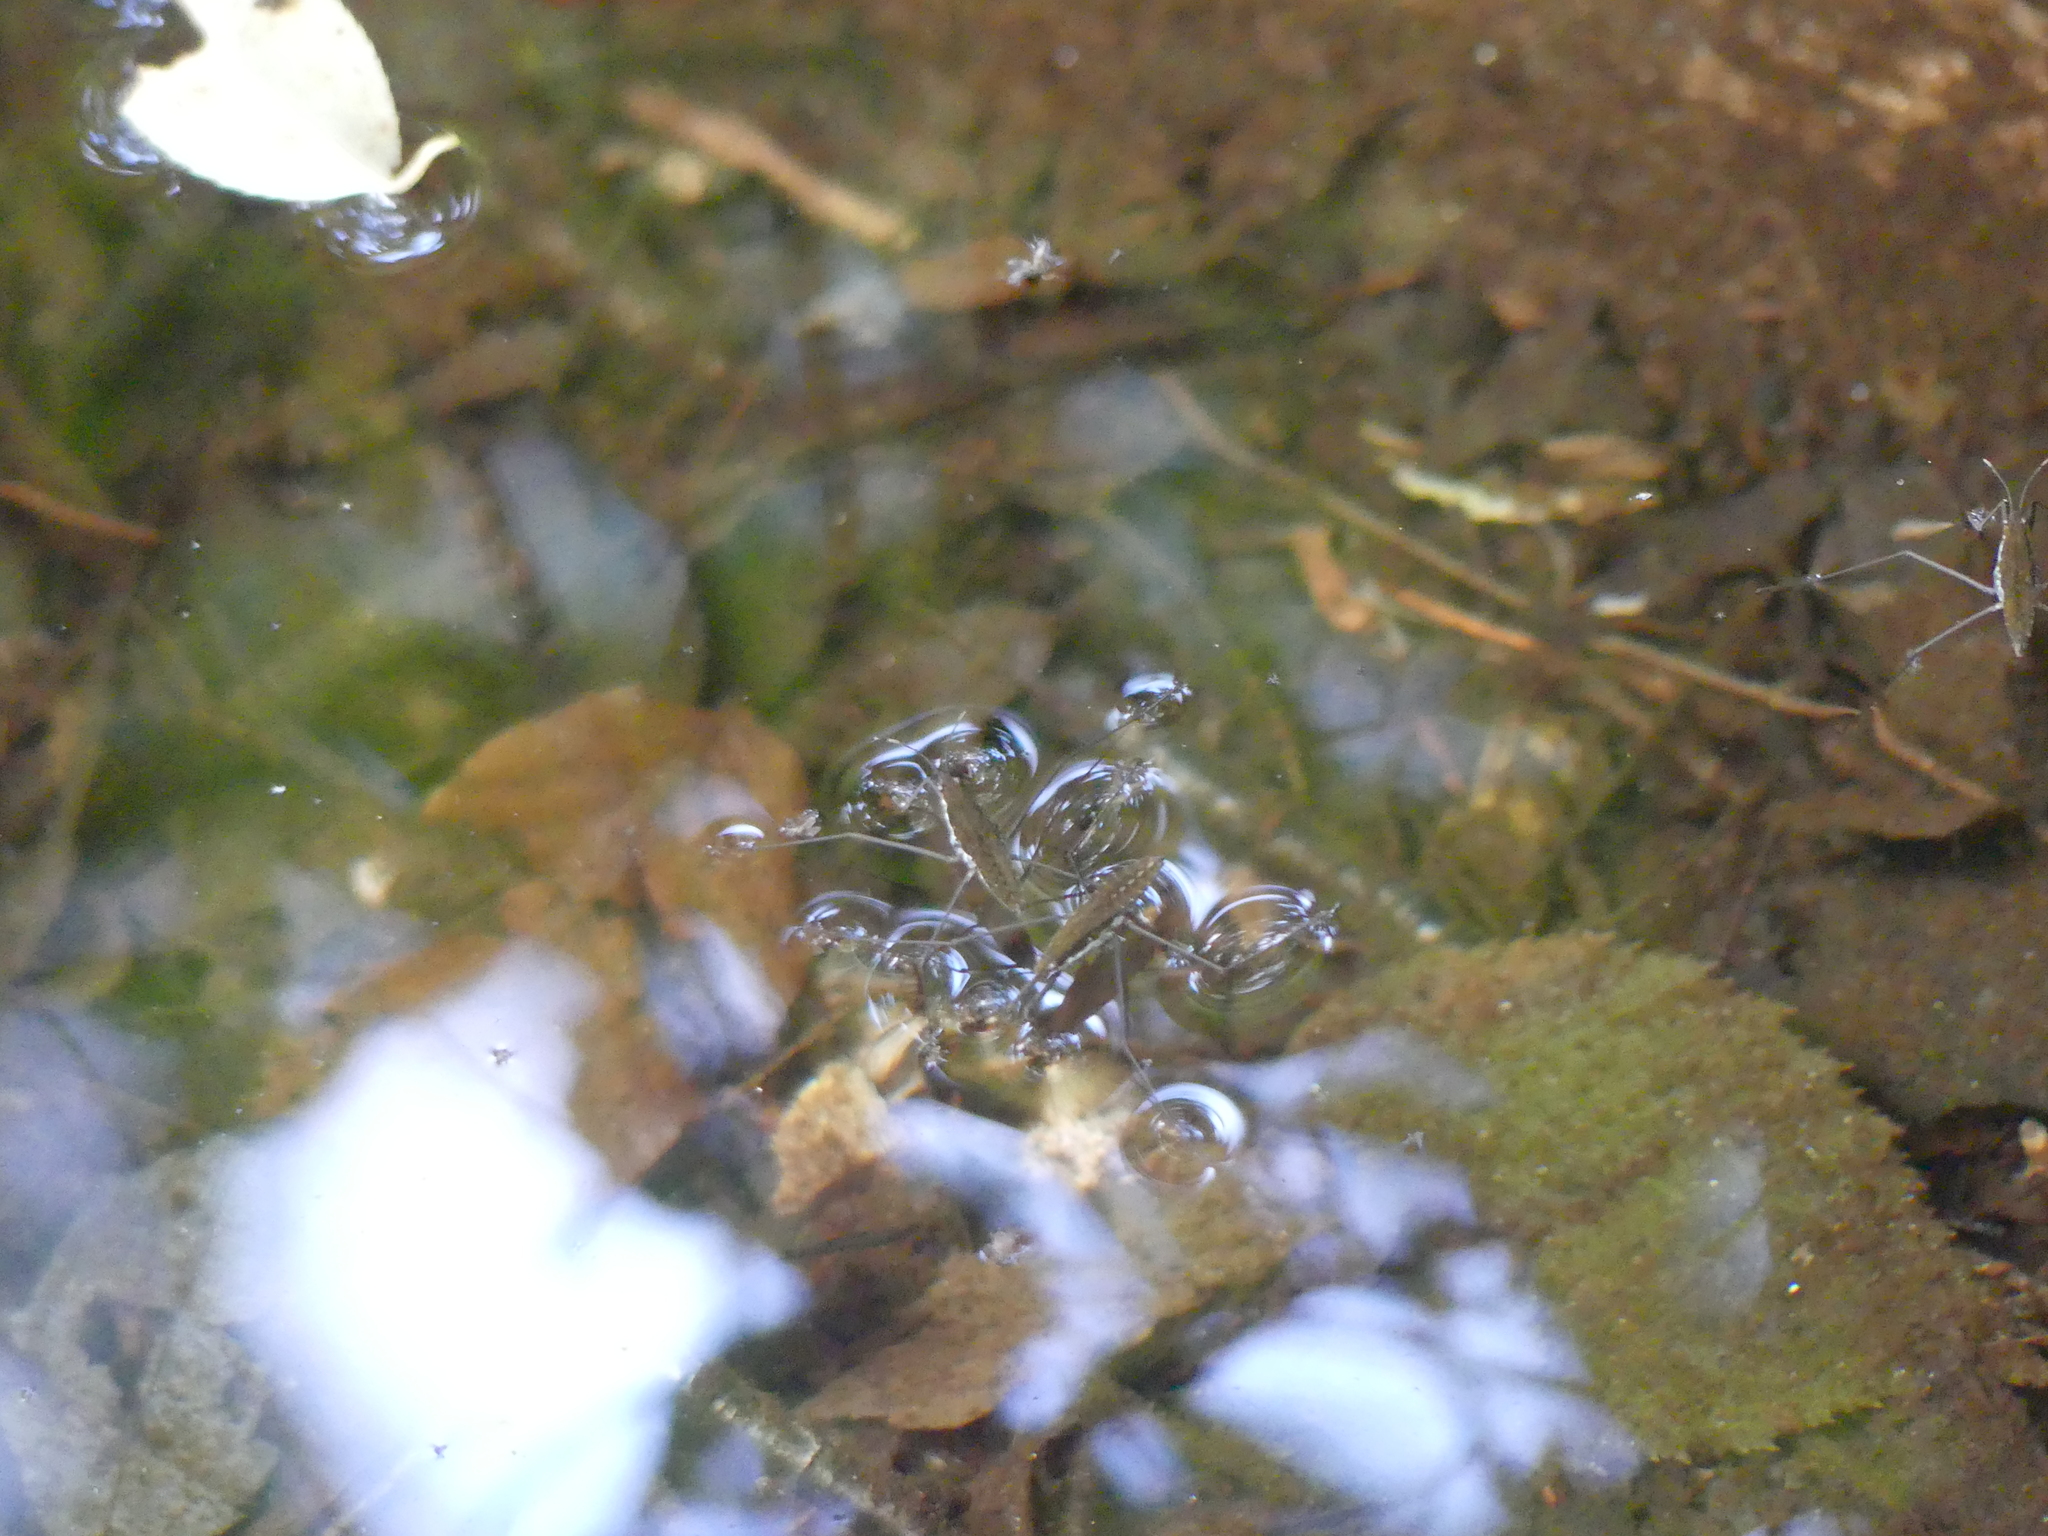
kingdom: Animalia
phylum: Arthropoda
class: Insecta
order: Hemiptera
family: Gerridae
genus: Aquarius
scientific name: Aquarius remigis
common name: Common water strider
